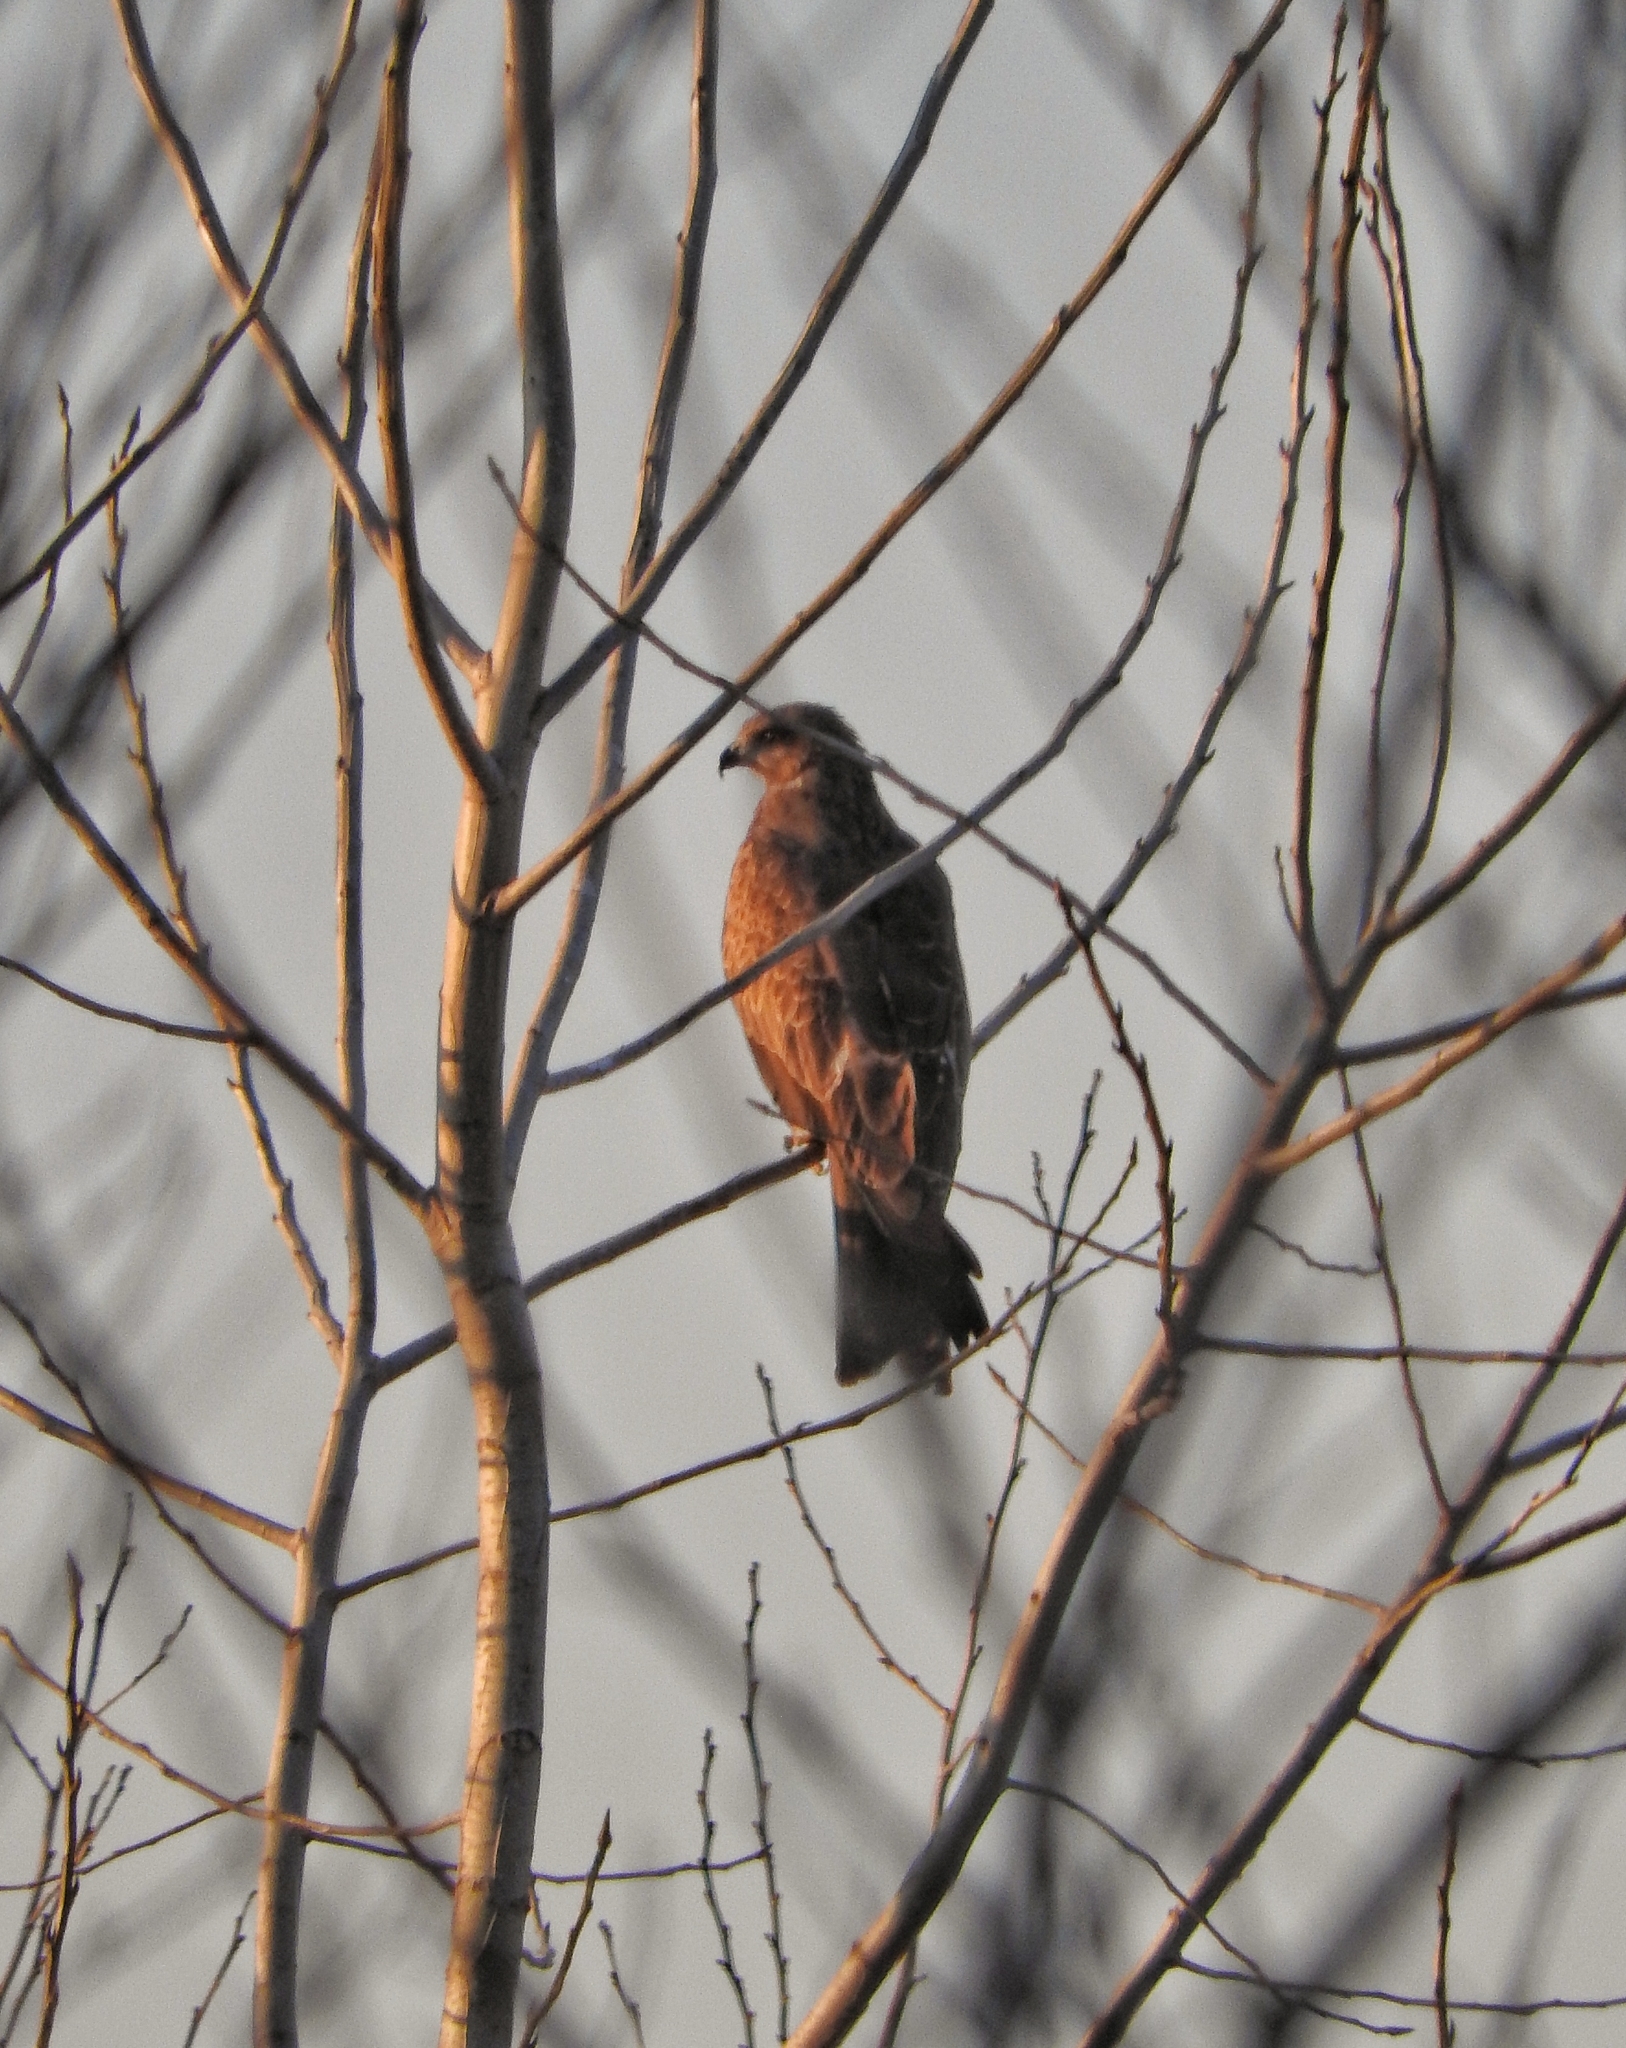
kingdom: Animalia
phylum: Chordata
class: Aves
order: Accipitriformes
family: Accipitridae
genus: Milvus
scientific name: Milvus migrans
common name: Black kite
